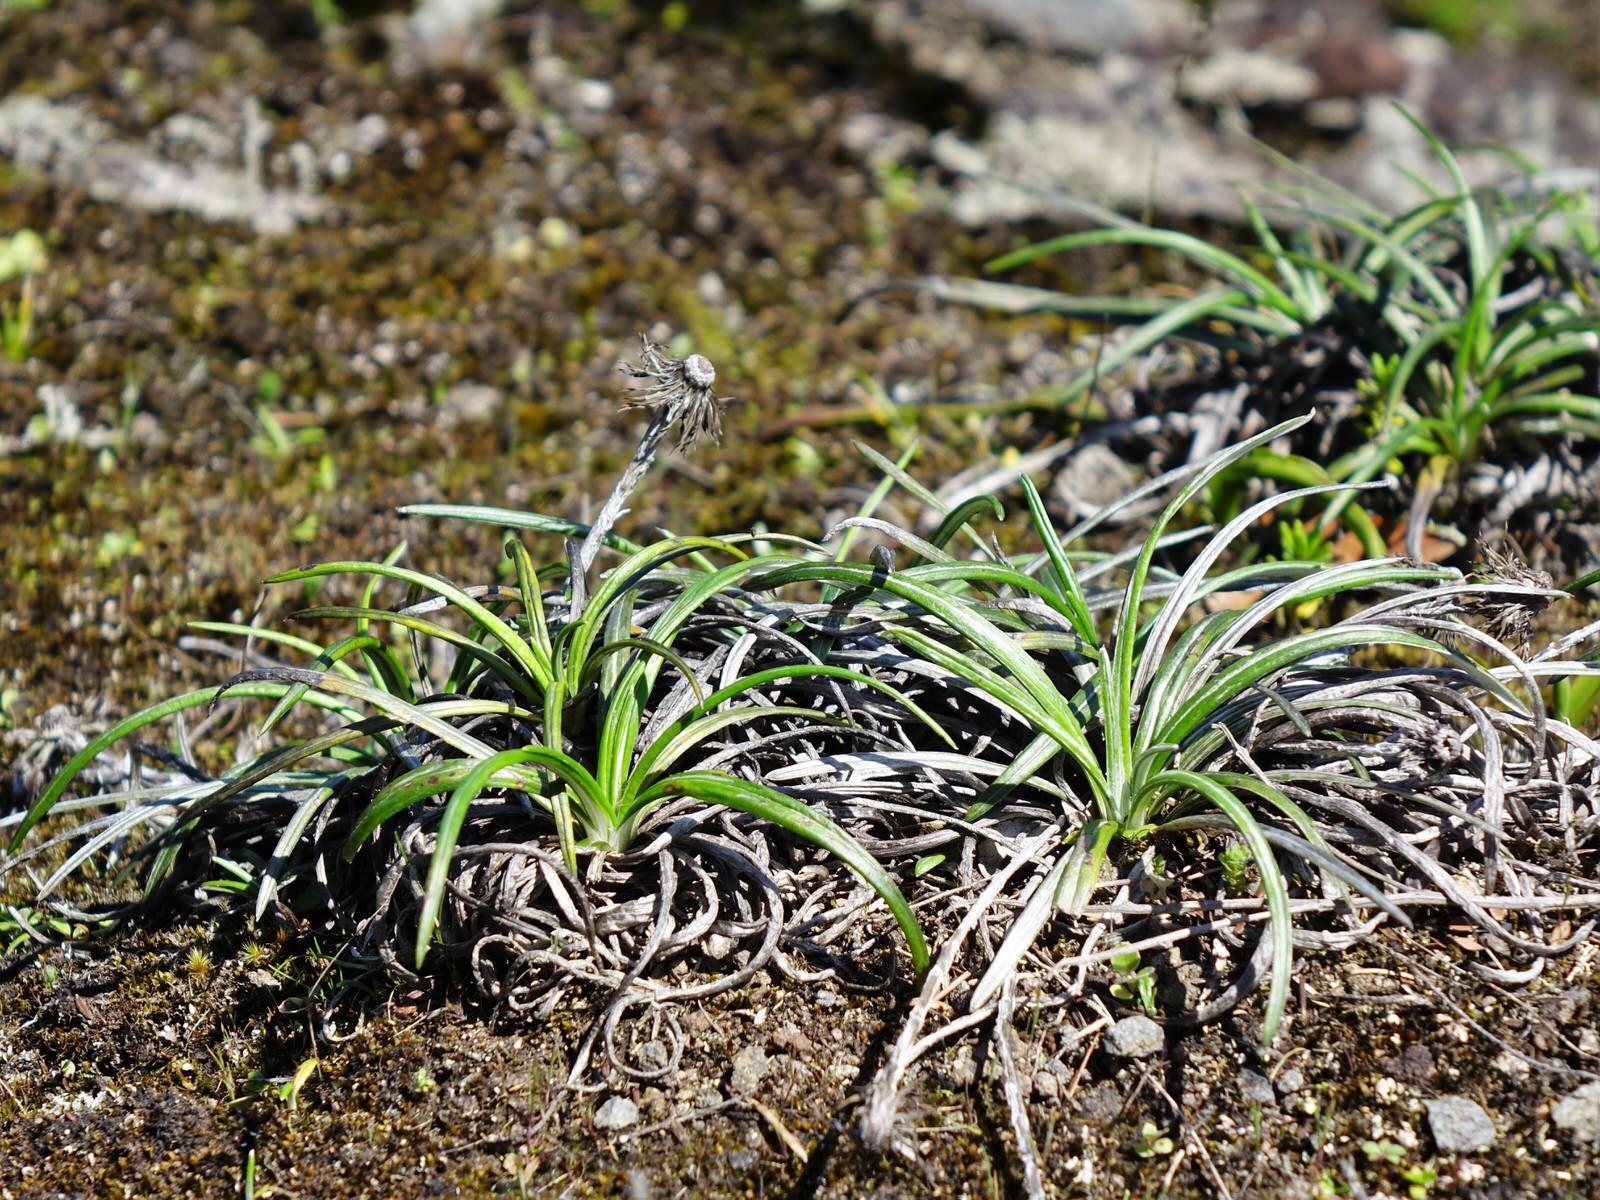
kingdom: Plantae
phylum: Tracheophyta
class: Magnoliopsida
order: Asterales
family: Asteraceae
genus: Celmisia
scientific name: Celmisia major
